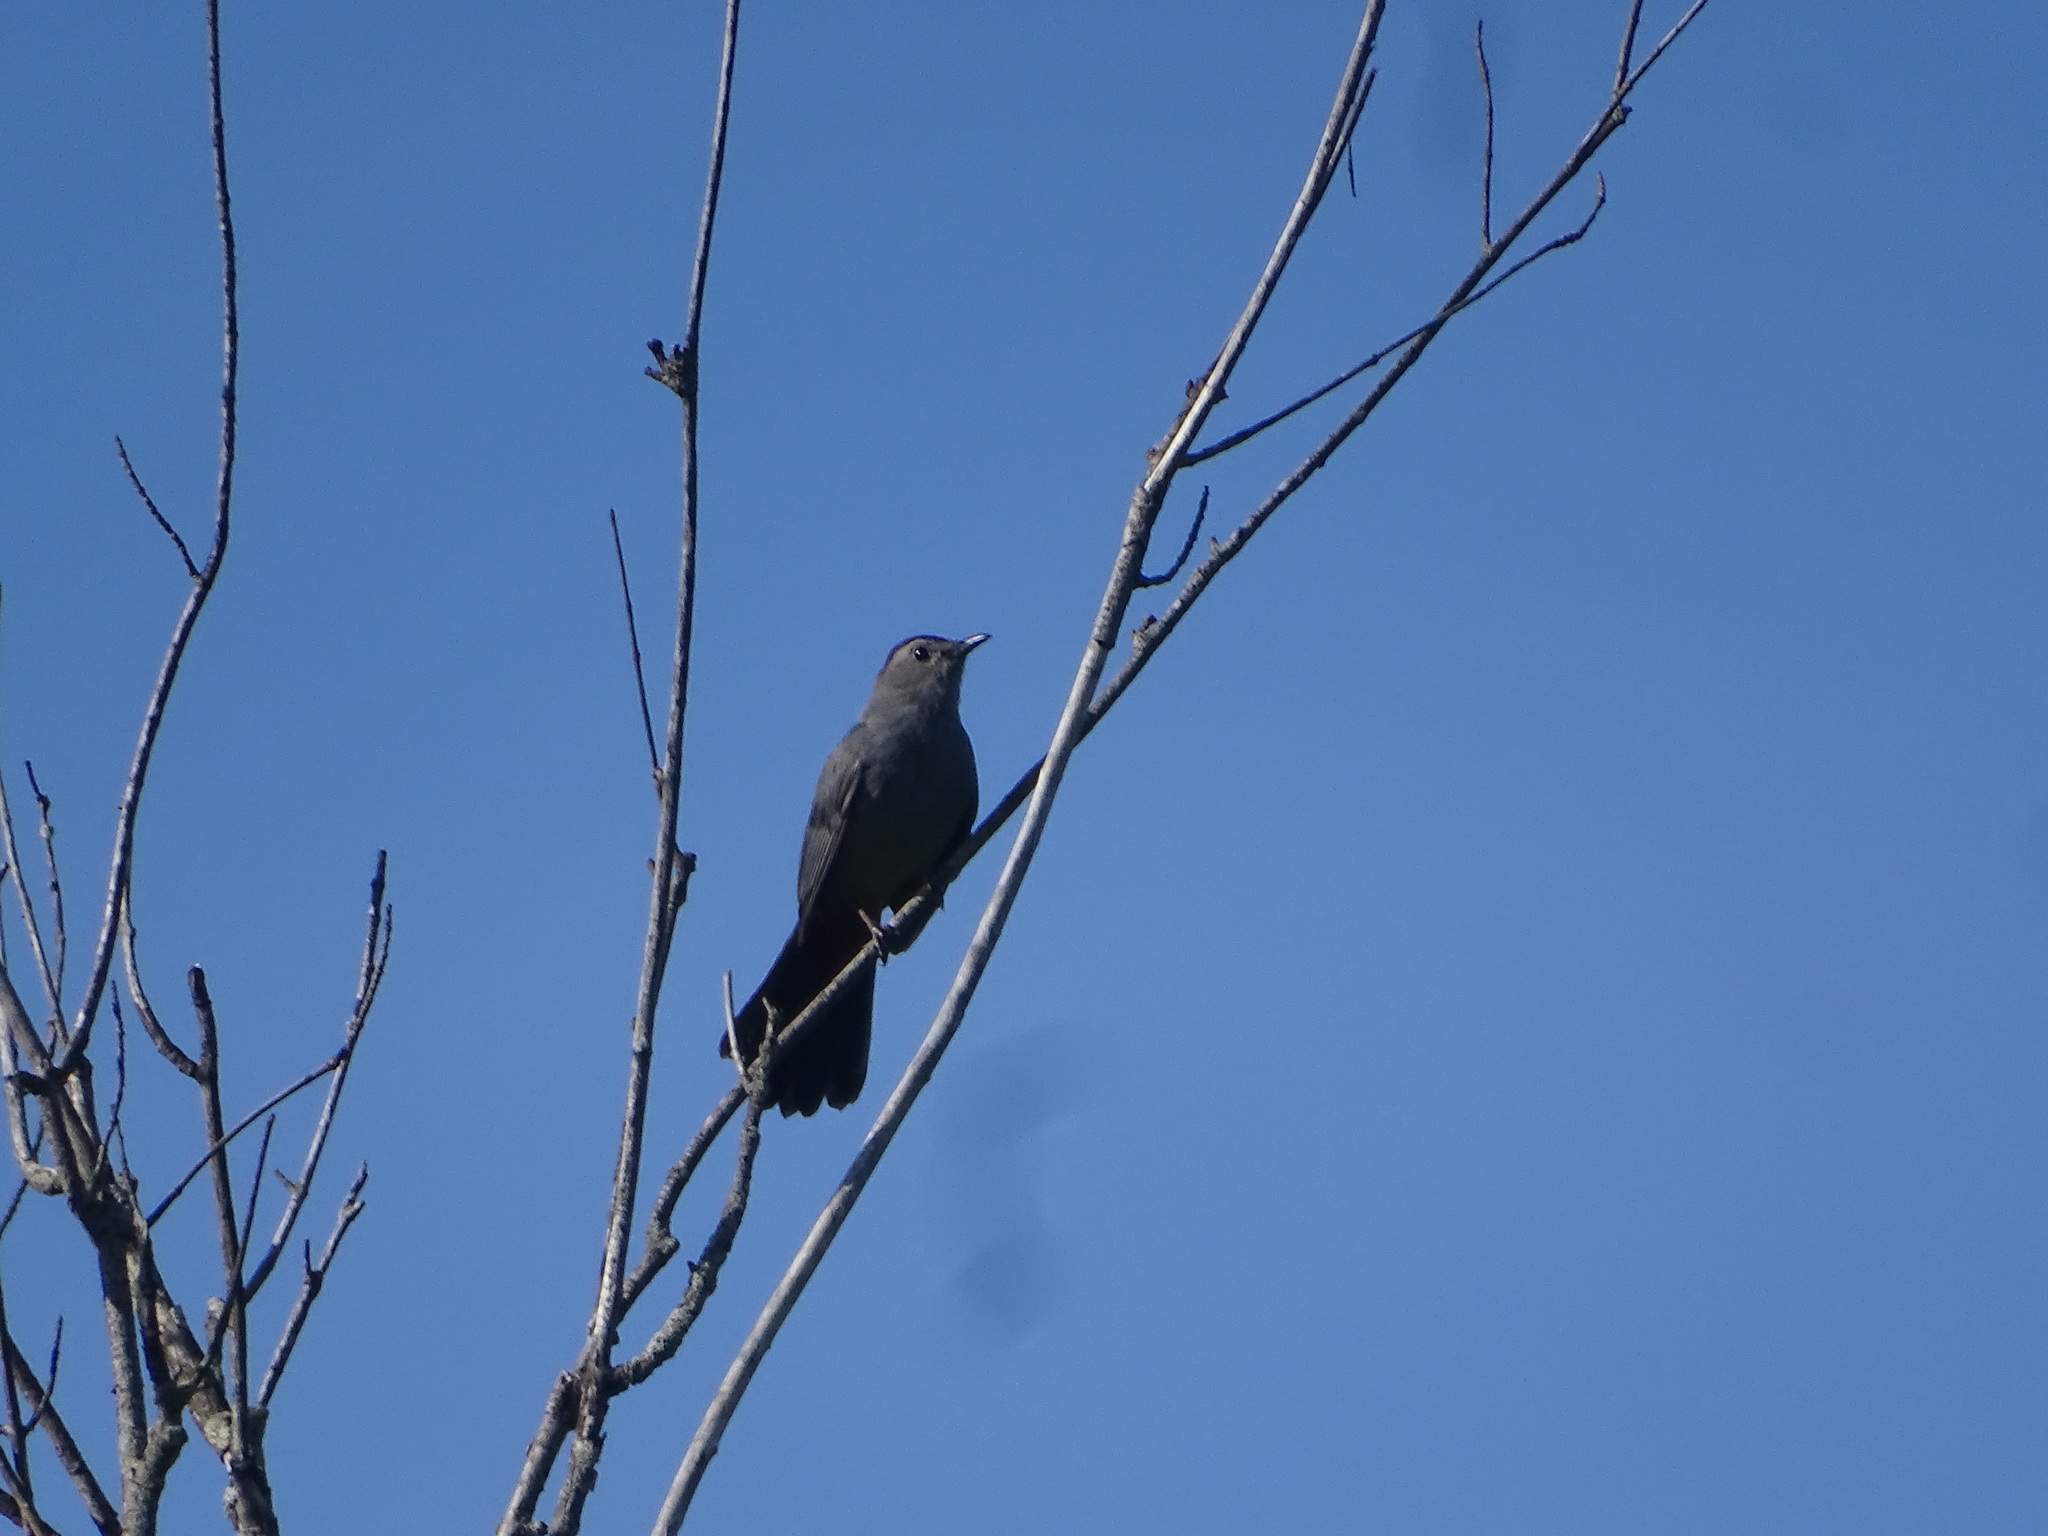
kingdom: Animalia
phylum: Chordata
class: Aves
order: Passeriformes
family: Mimidae
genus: Dumetella
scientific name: Dumetella carolinensis
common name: Gray catbird
